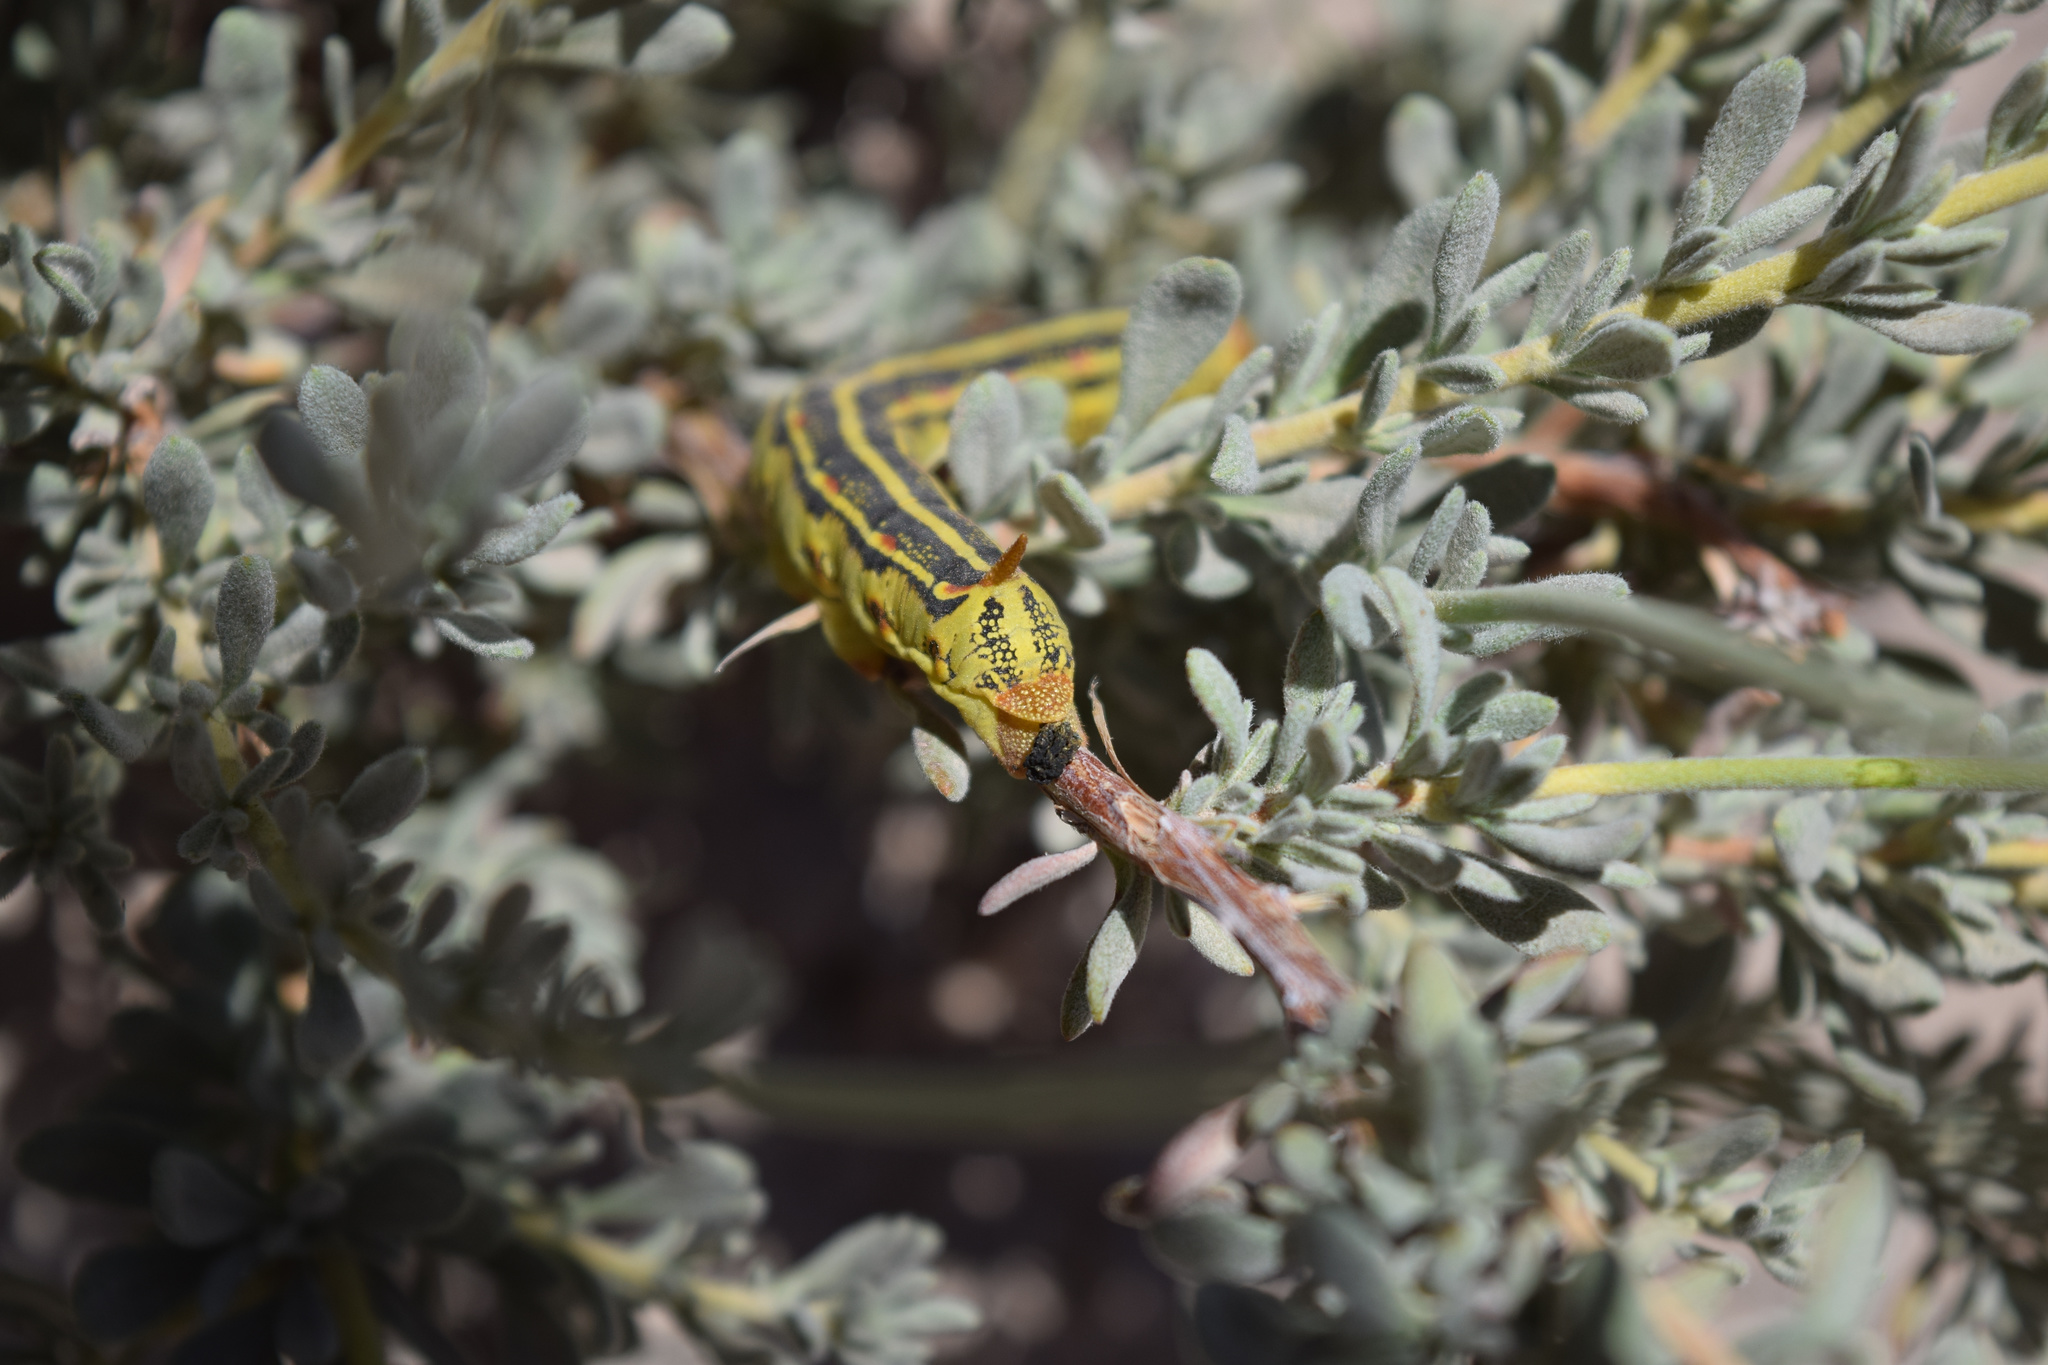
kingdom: Animalia
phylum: Arthropoda
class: Insecta
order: Lepidoptera
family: Sphingidae
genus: Hyles
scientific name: Hyles lineata
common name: White-lined sphinx
